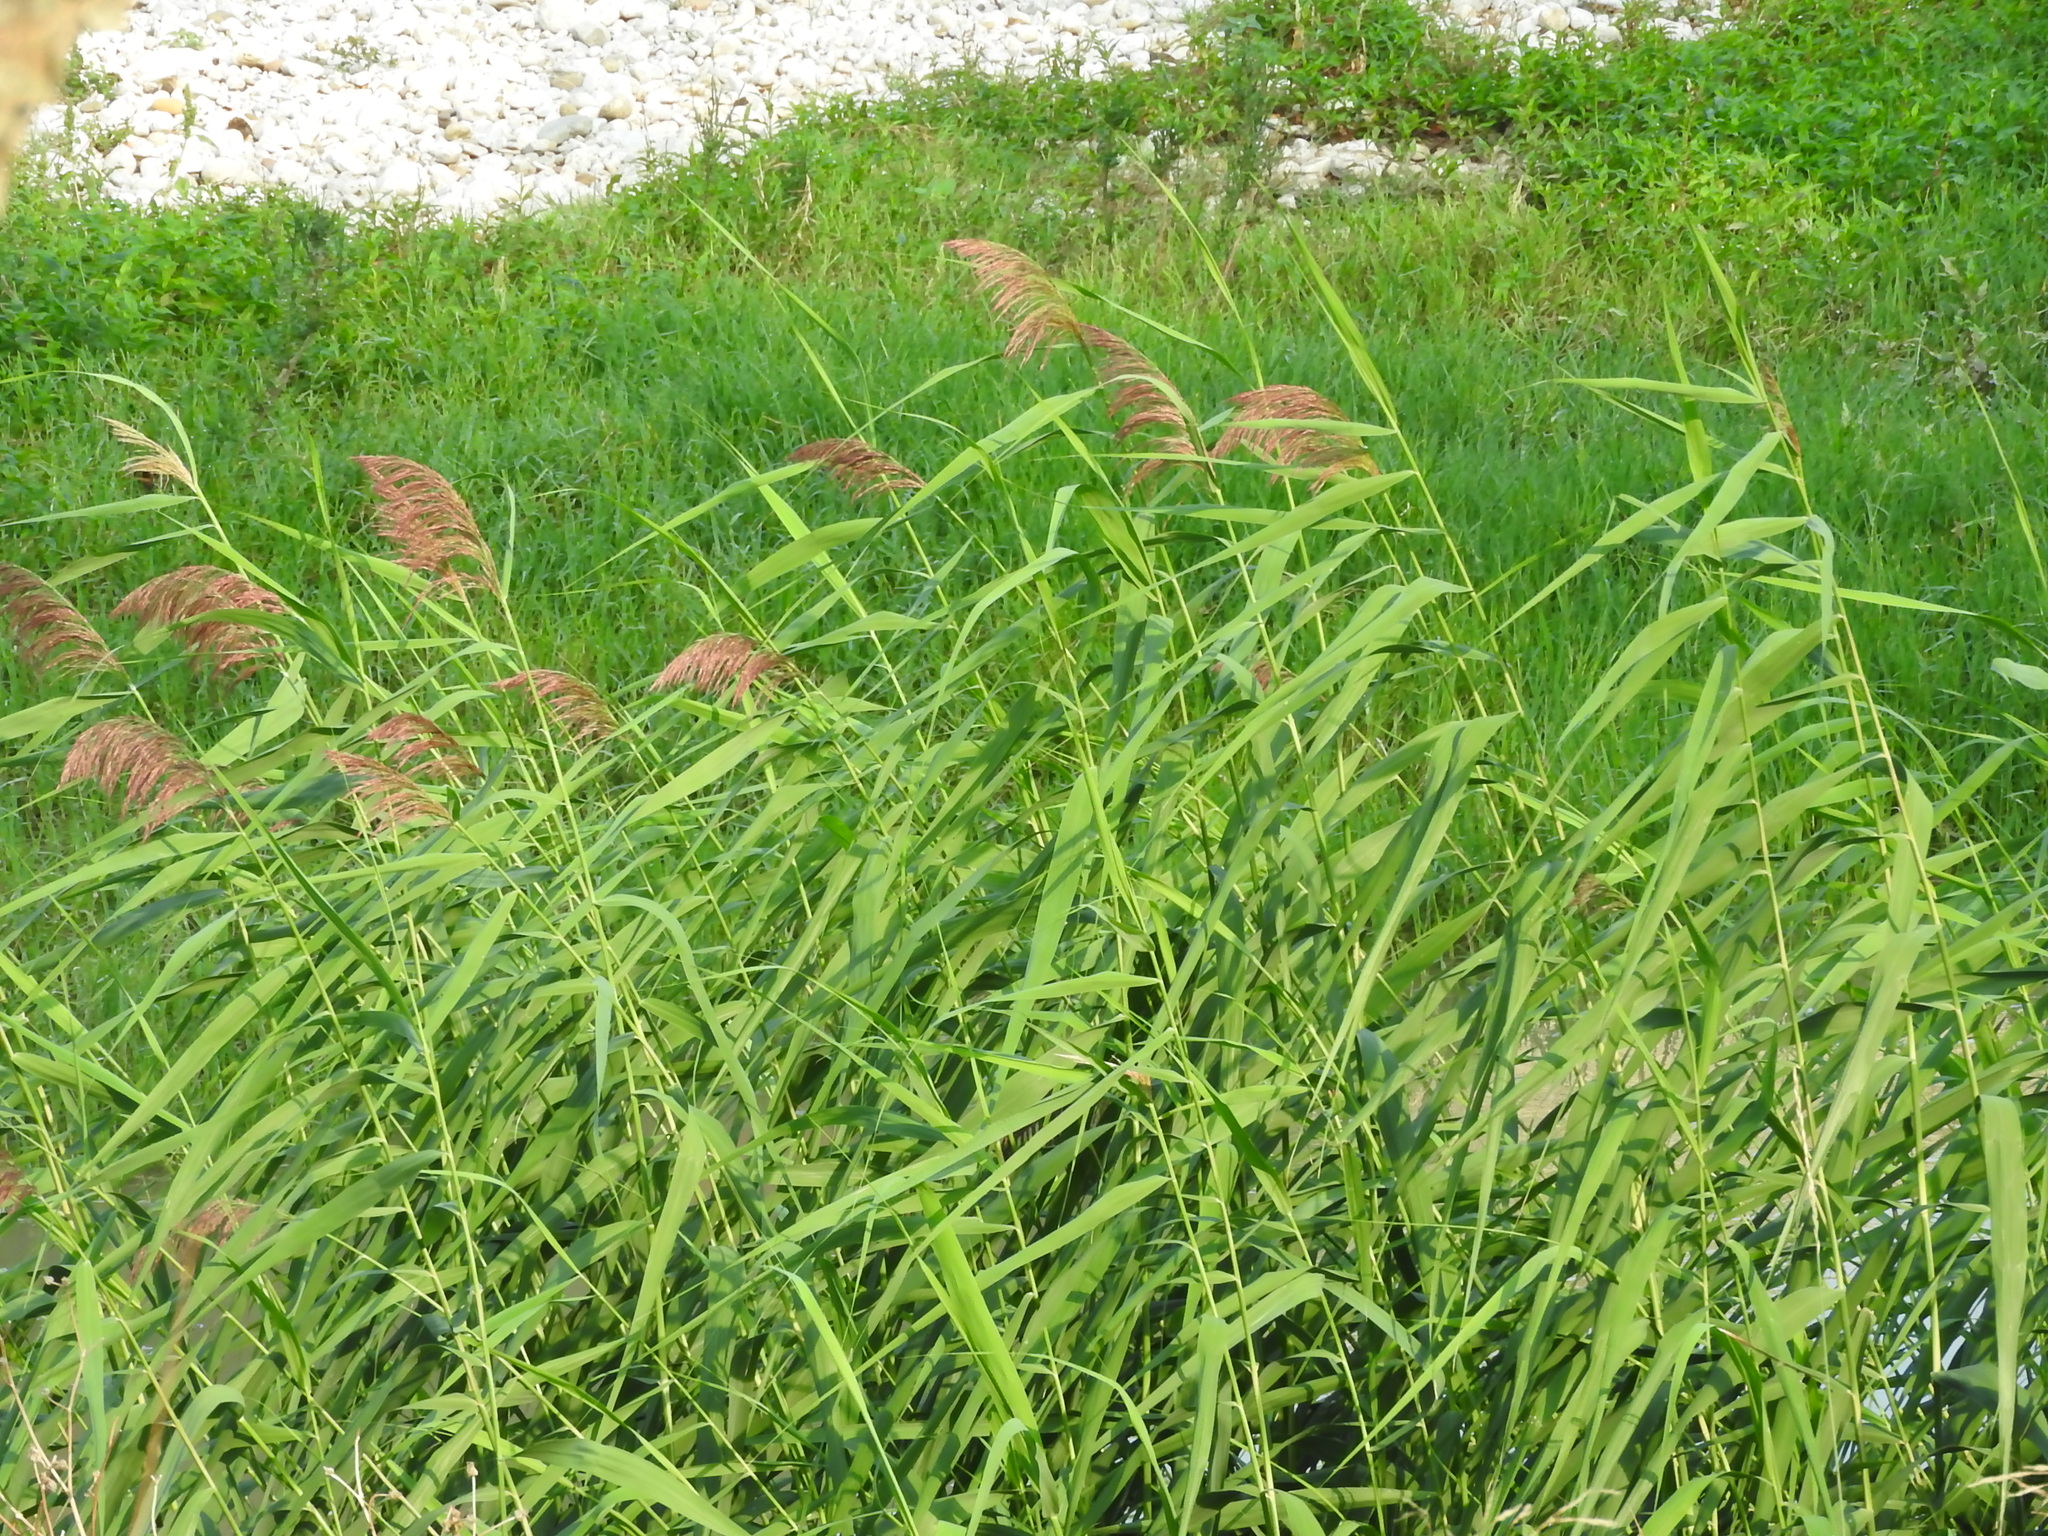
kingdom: Plantae
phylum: Tracheophyta
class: Liliopsida
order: Poales
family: Poaceae
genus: Phragmites
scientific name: Phragmites australis
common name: Common reed
